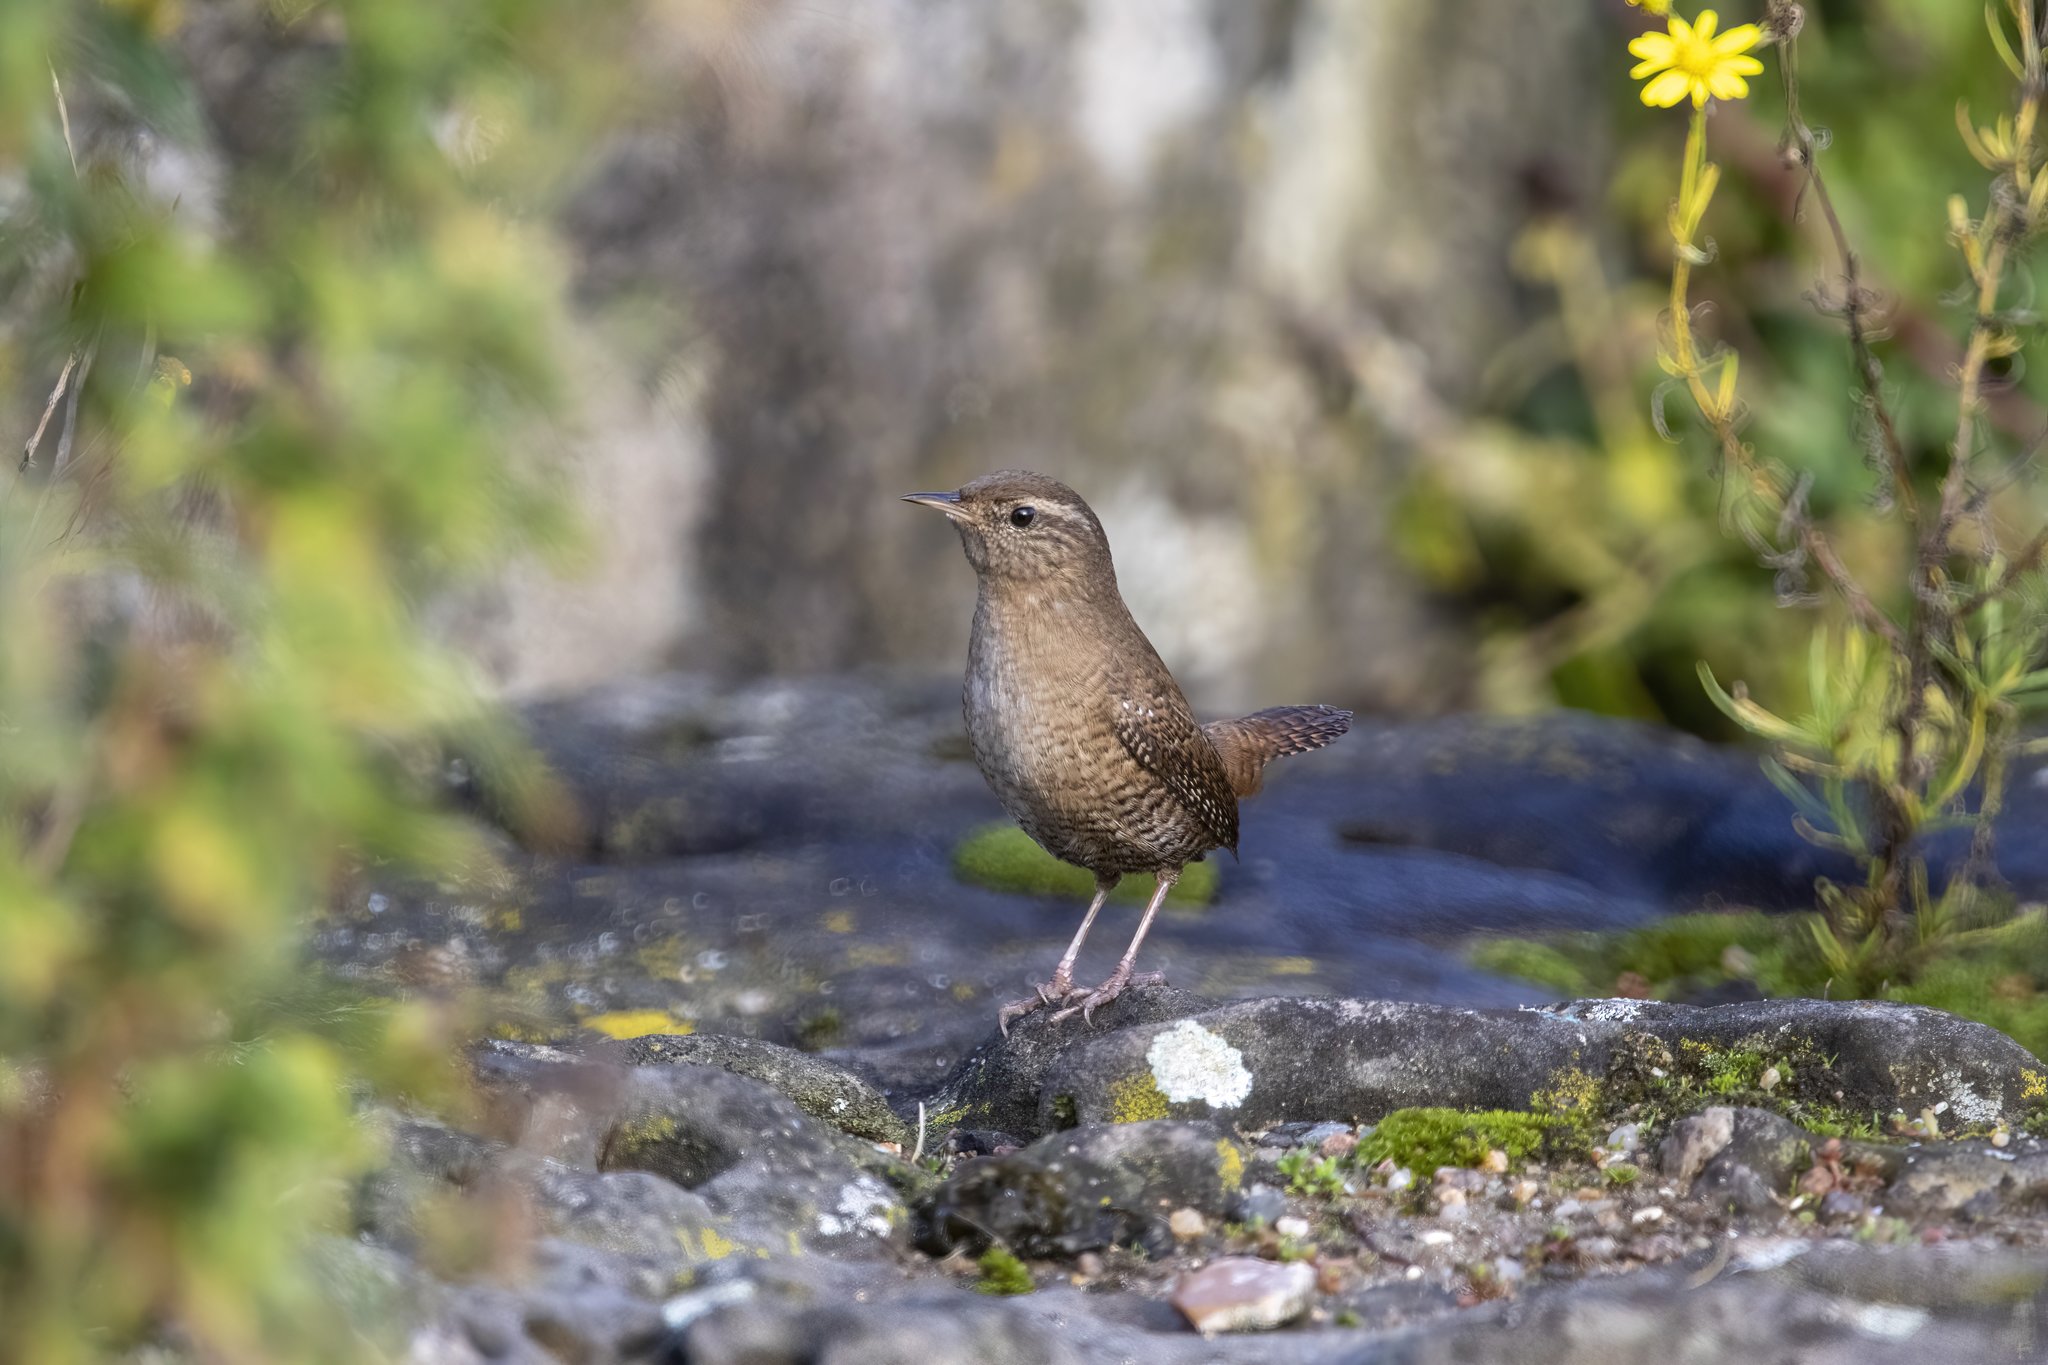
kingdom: Animalia
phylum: Chordata
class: Aves
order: Passeriformes
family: Troglodytidae
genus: Troglodytes
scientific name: Troglodytes troglodytes
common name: Eurasian wren
